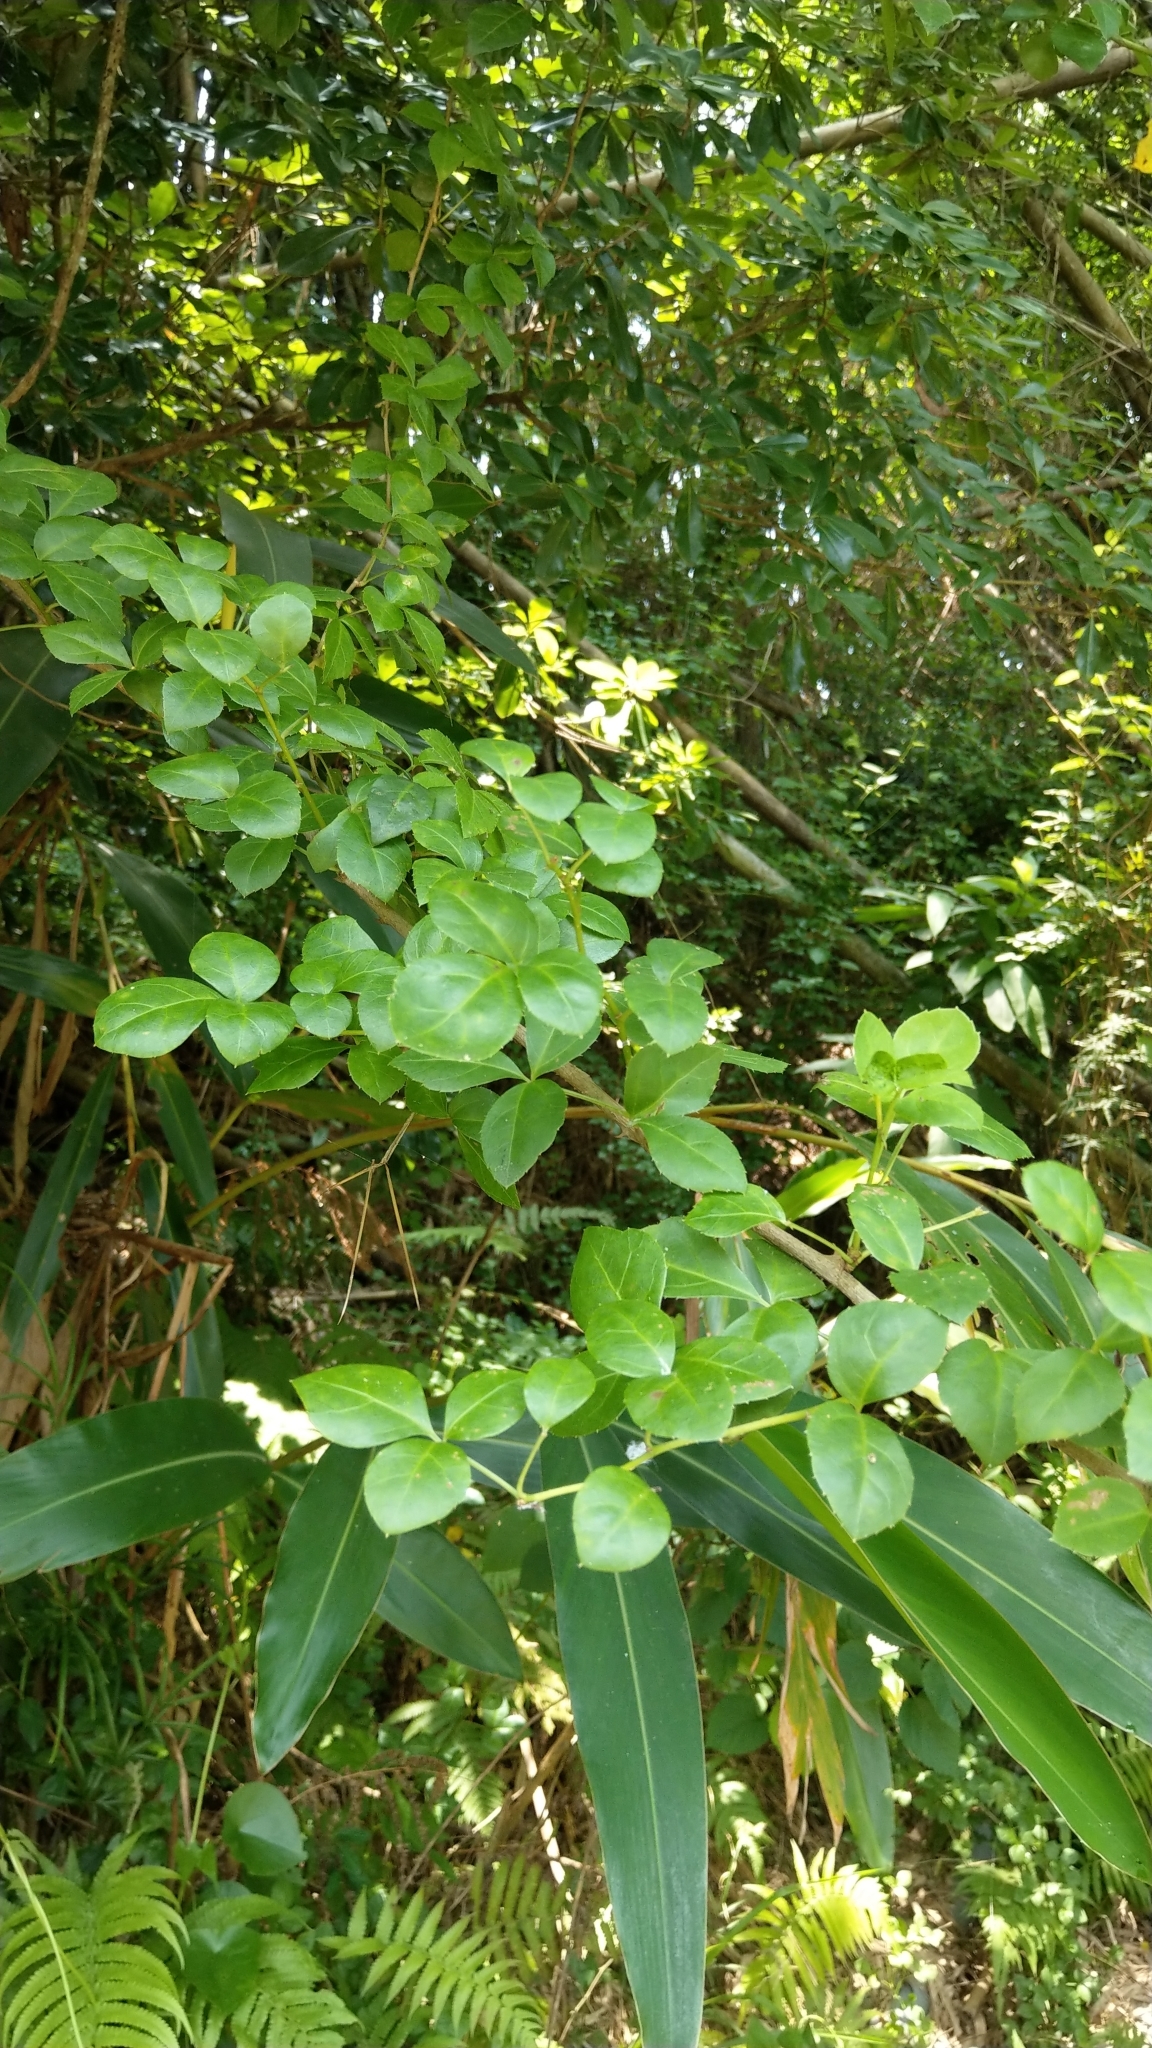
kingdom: Plantae
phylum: Tracheophyta
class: Magnoliopsida
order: Apiales
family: Araliaceae
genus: Eleutherococcus
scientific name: Eleutherococcus trifoliatus
